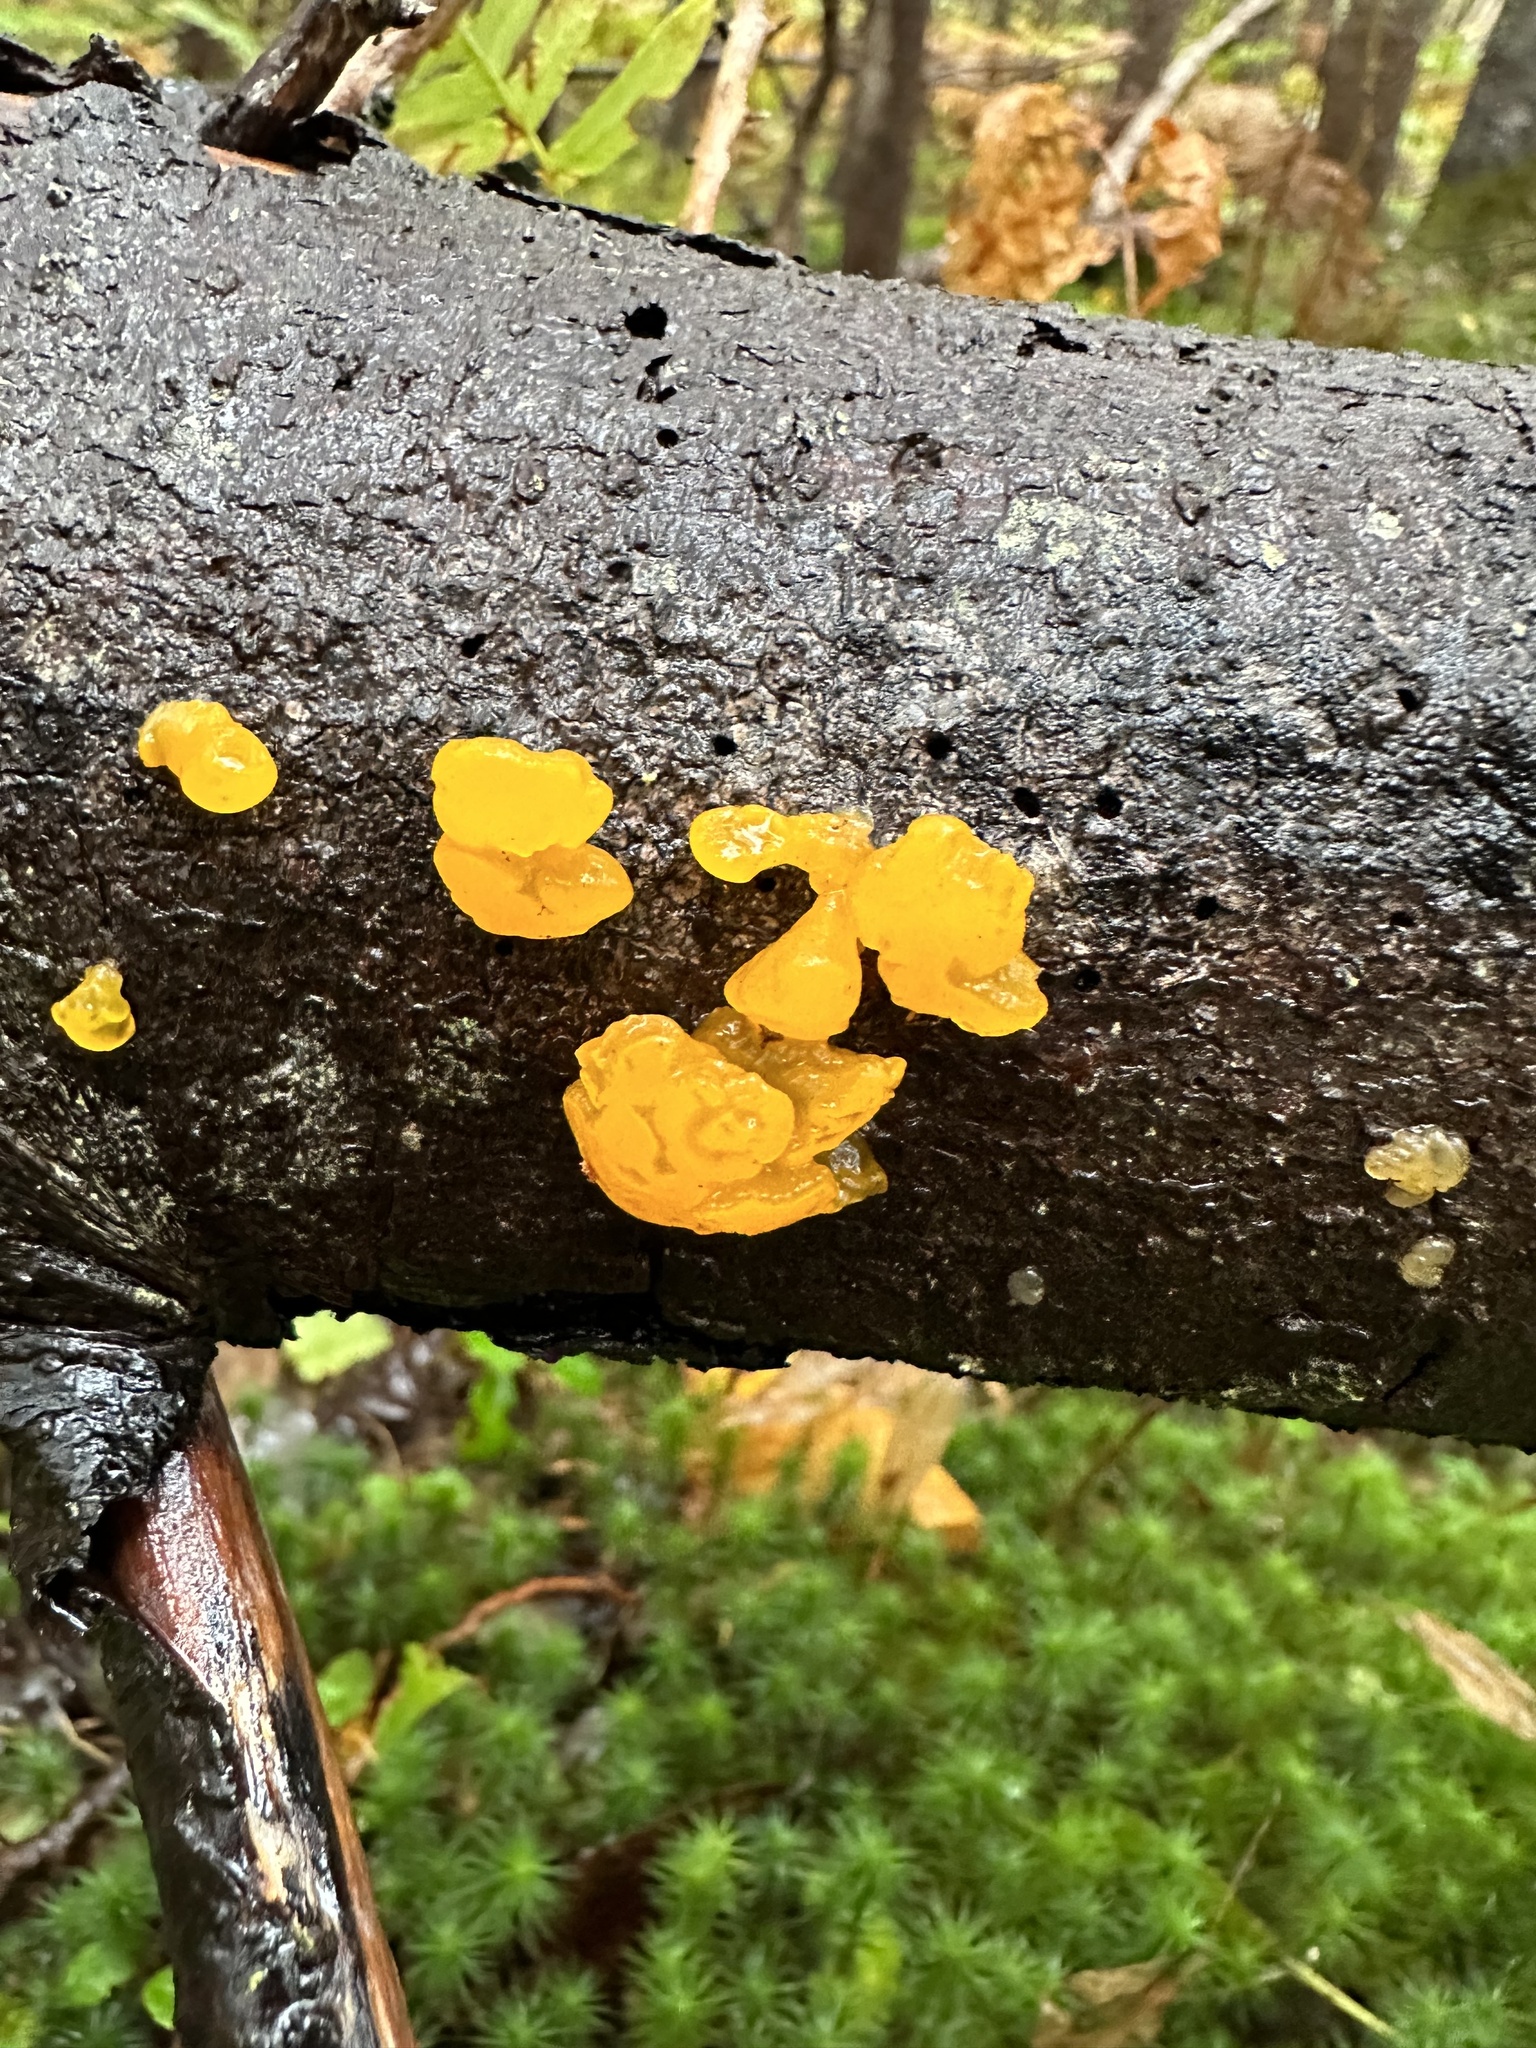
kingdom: Fungi
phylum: Basidiomycota
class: Dacrymycetes
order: Dacrymycetales
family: Dacrymycetaceae
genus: Dacrymyces
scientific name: Dacrymyces chrysospermus
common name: Orange jelly spot
